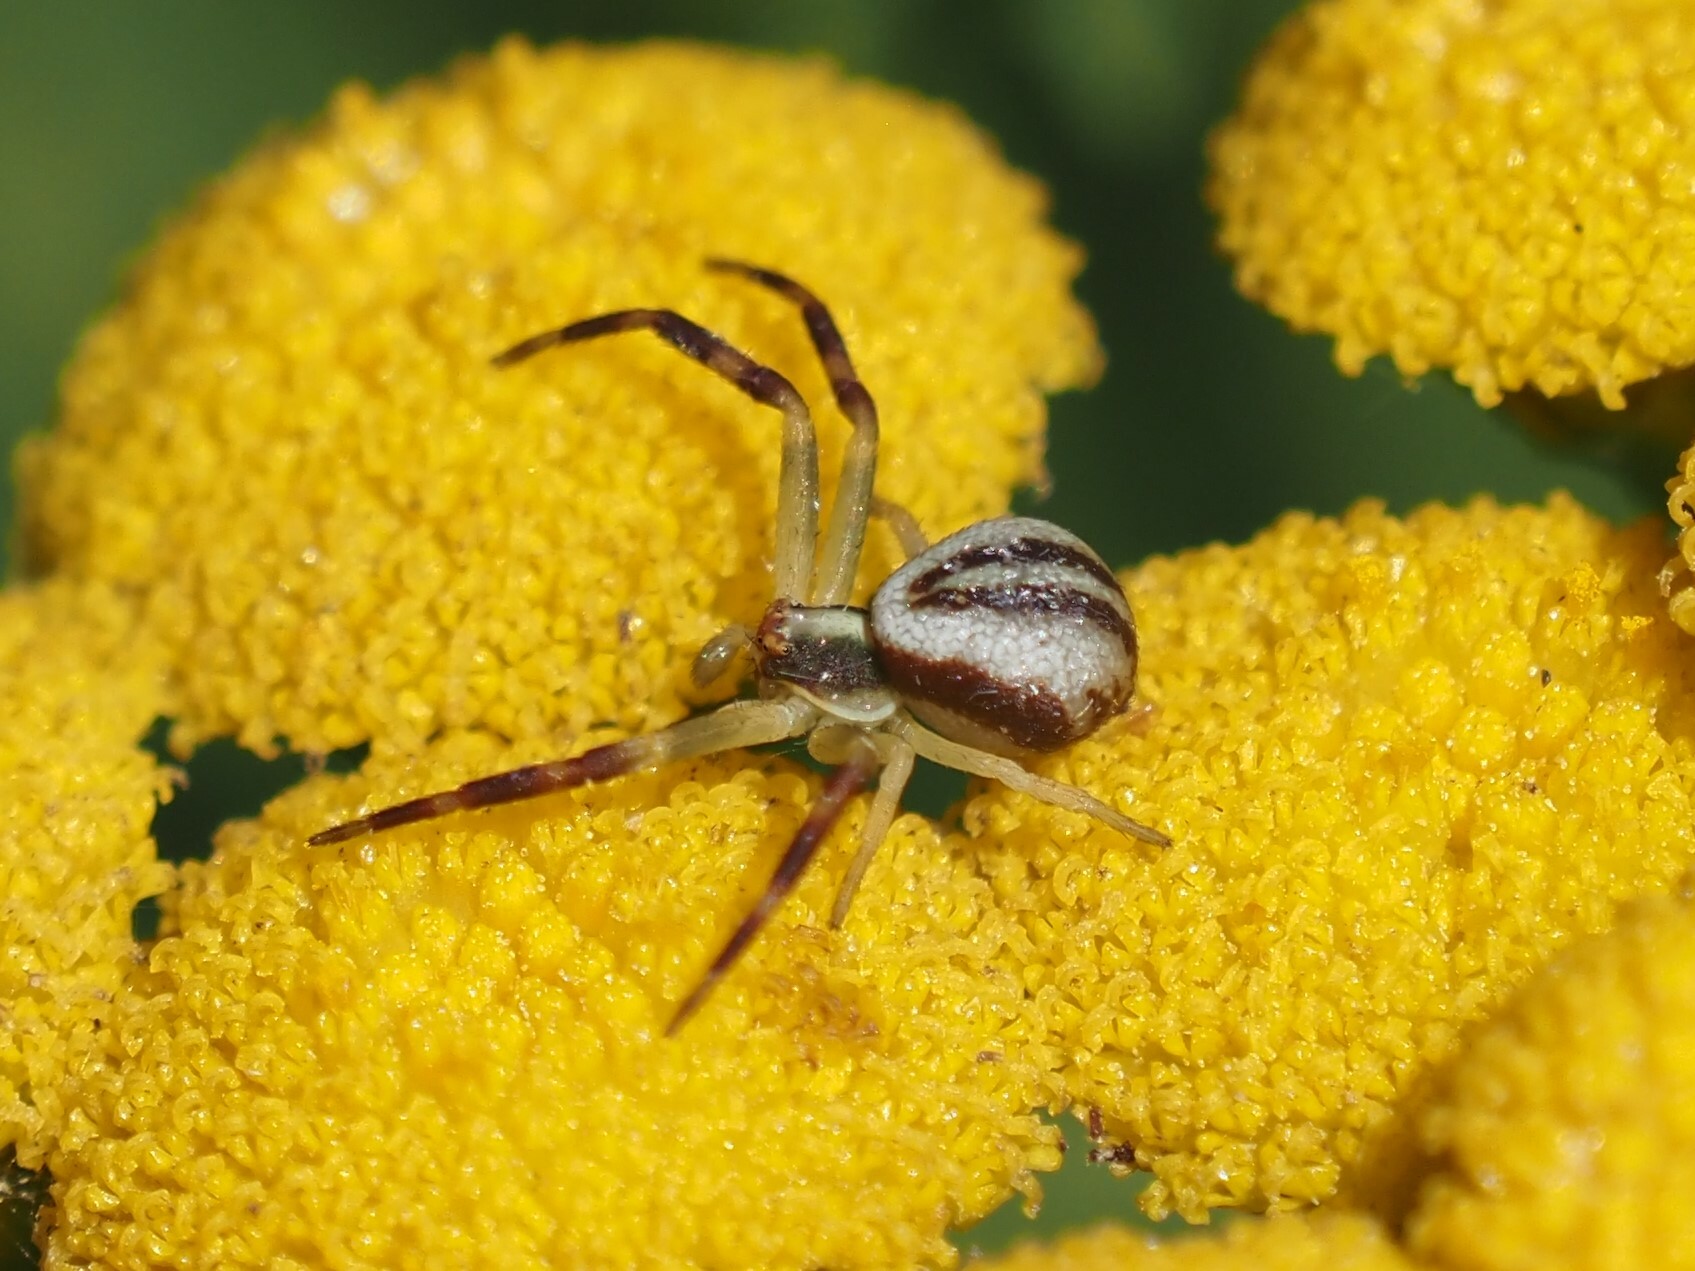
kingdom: Animalia
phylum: Arthropoda
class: Arachnida
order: Araneae
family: Thomisidae
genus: Misumena
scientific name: Misumena vatia
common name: Goldenrod crab spider
